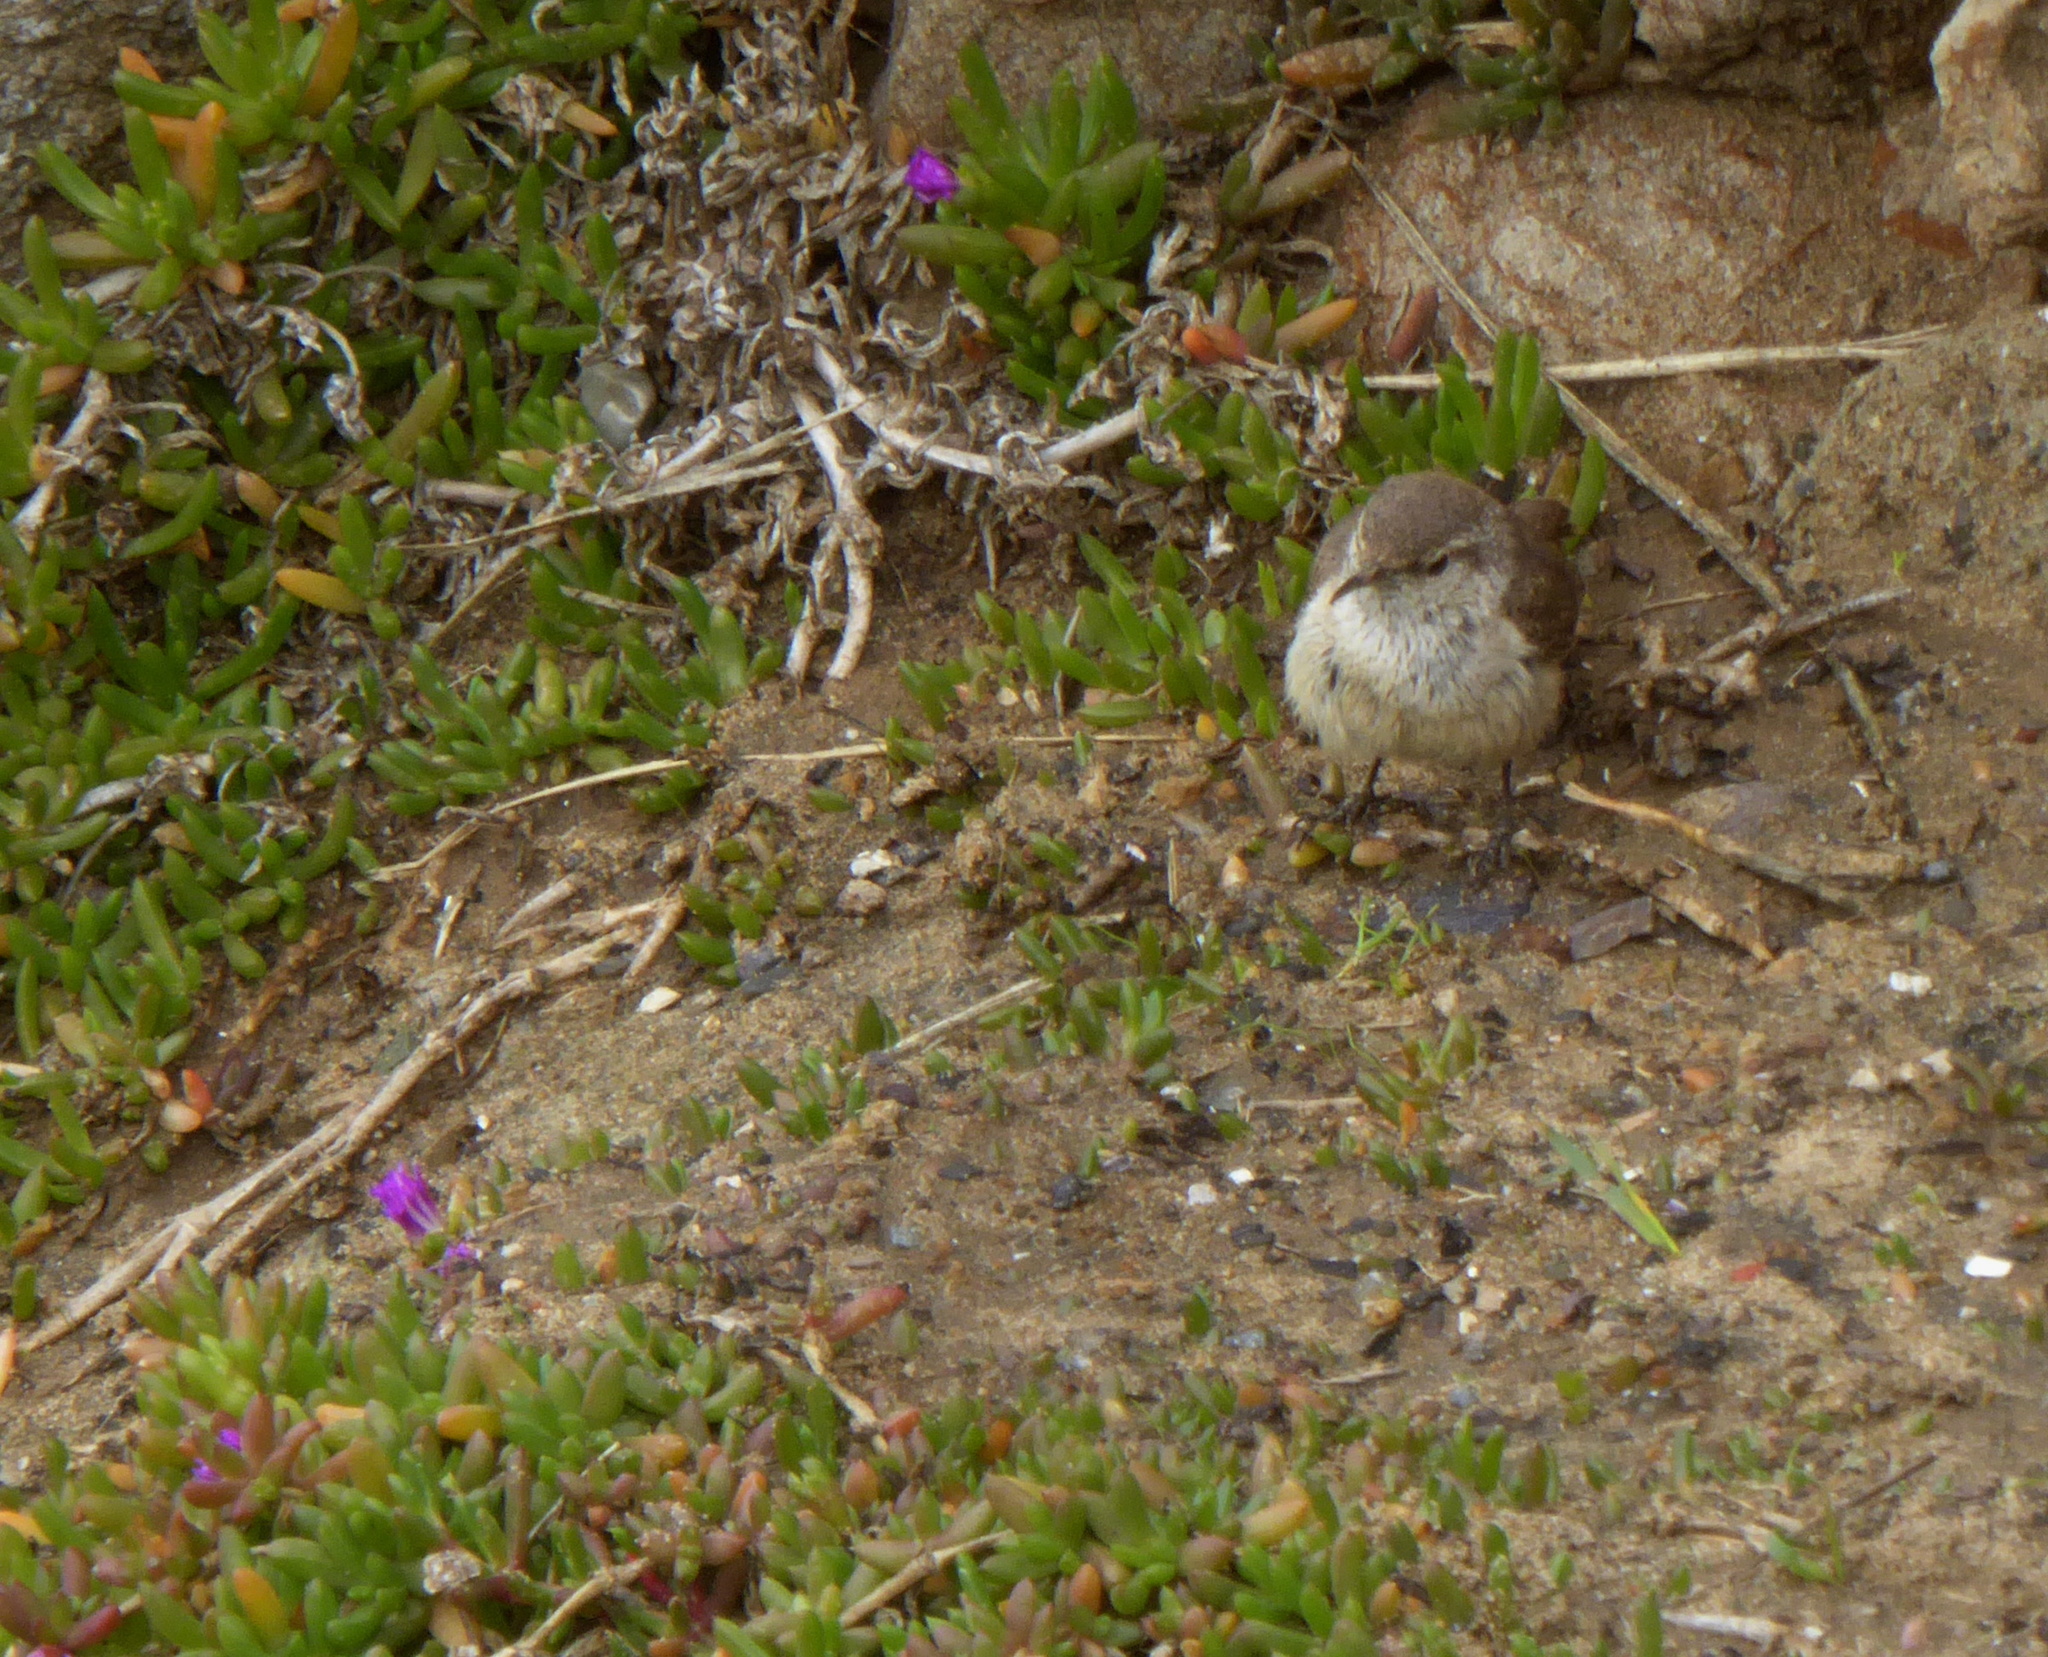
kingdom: Animalia
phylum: Chordata
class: Aves
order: Passeriformes
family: Troglodytidae
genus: Salpinctes
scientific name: Salpinctes obsoletus
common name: Rock wren
